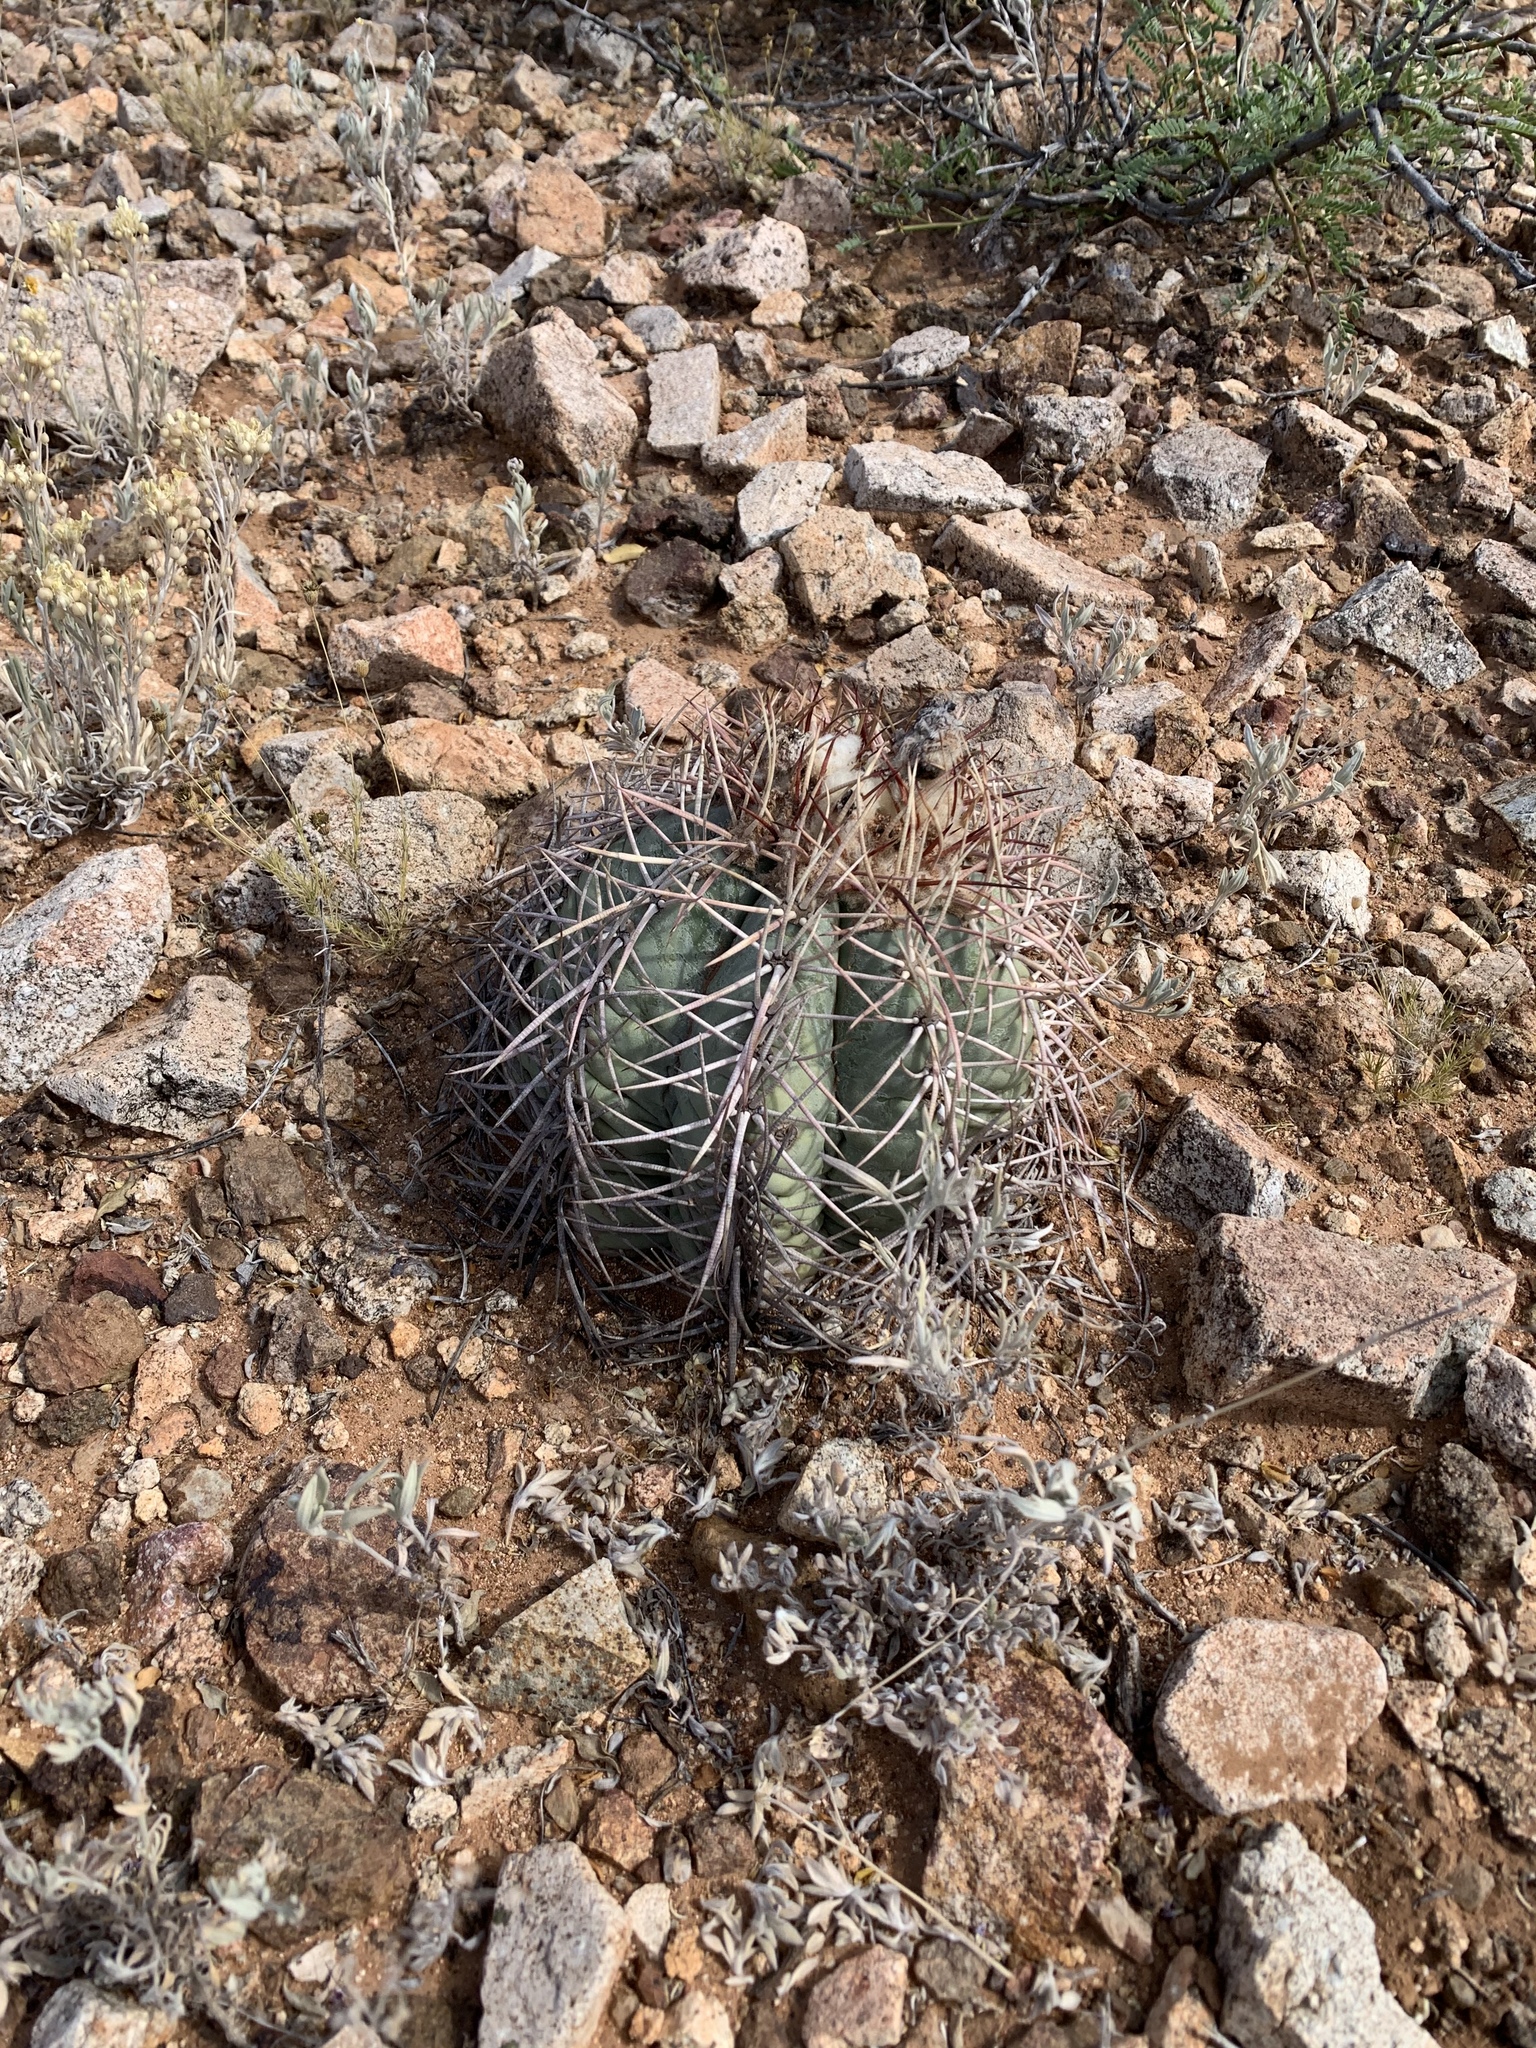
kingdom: Plantae
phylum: Tracheophyta
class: Magnoliopsida
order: Caryophyllales
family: Cactaceae
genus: Echinocactus
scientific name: Echinocactus horizonthalonius
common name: Devilshead
